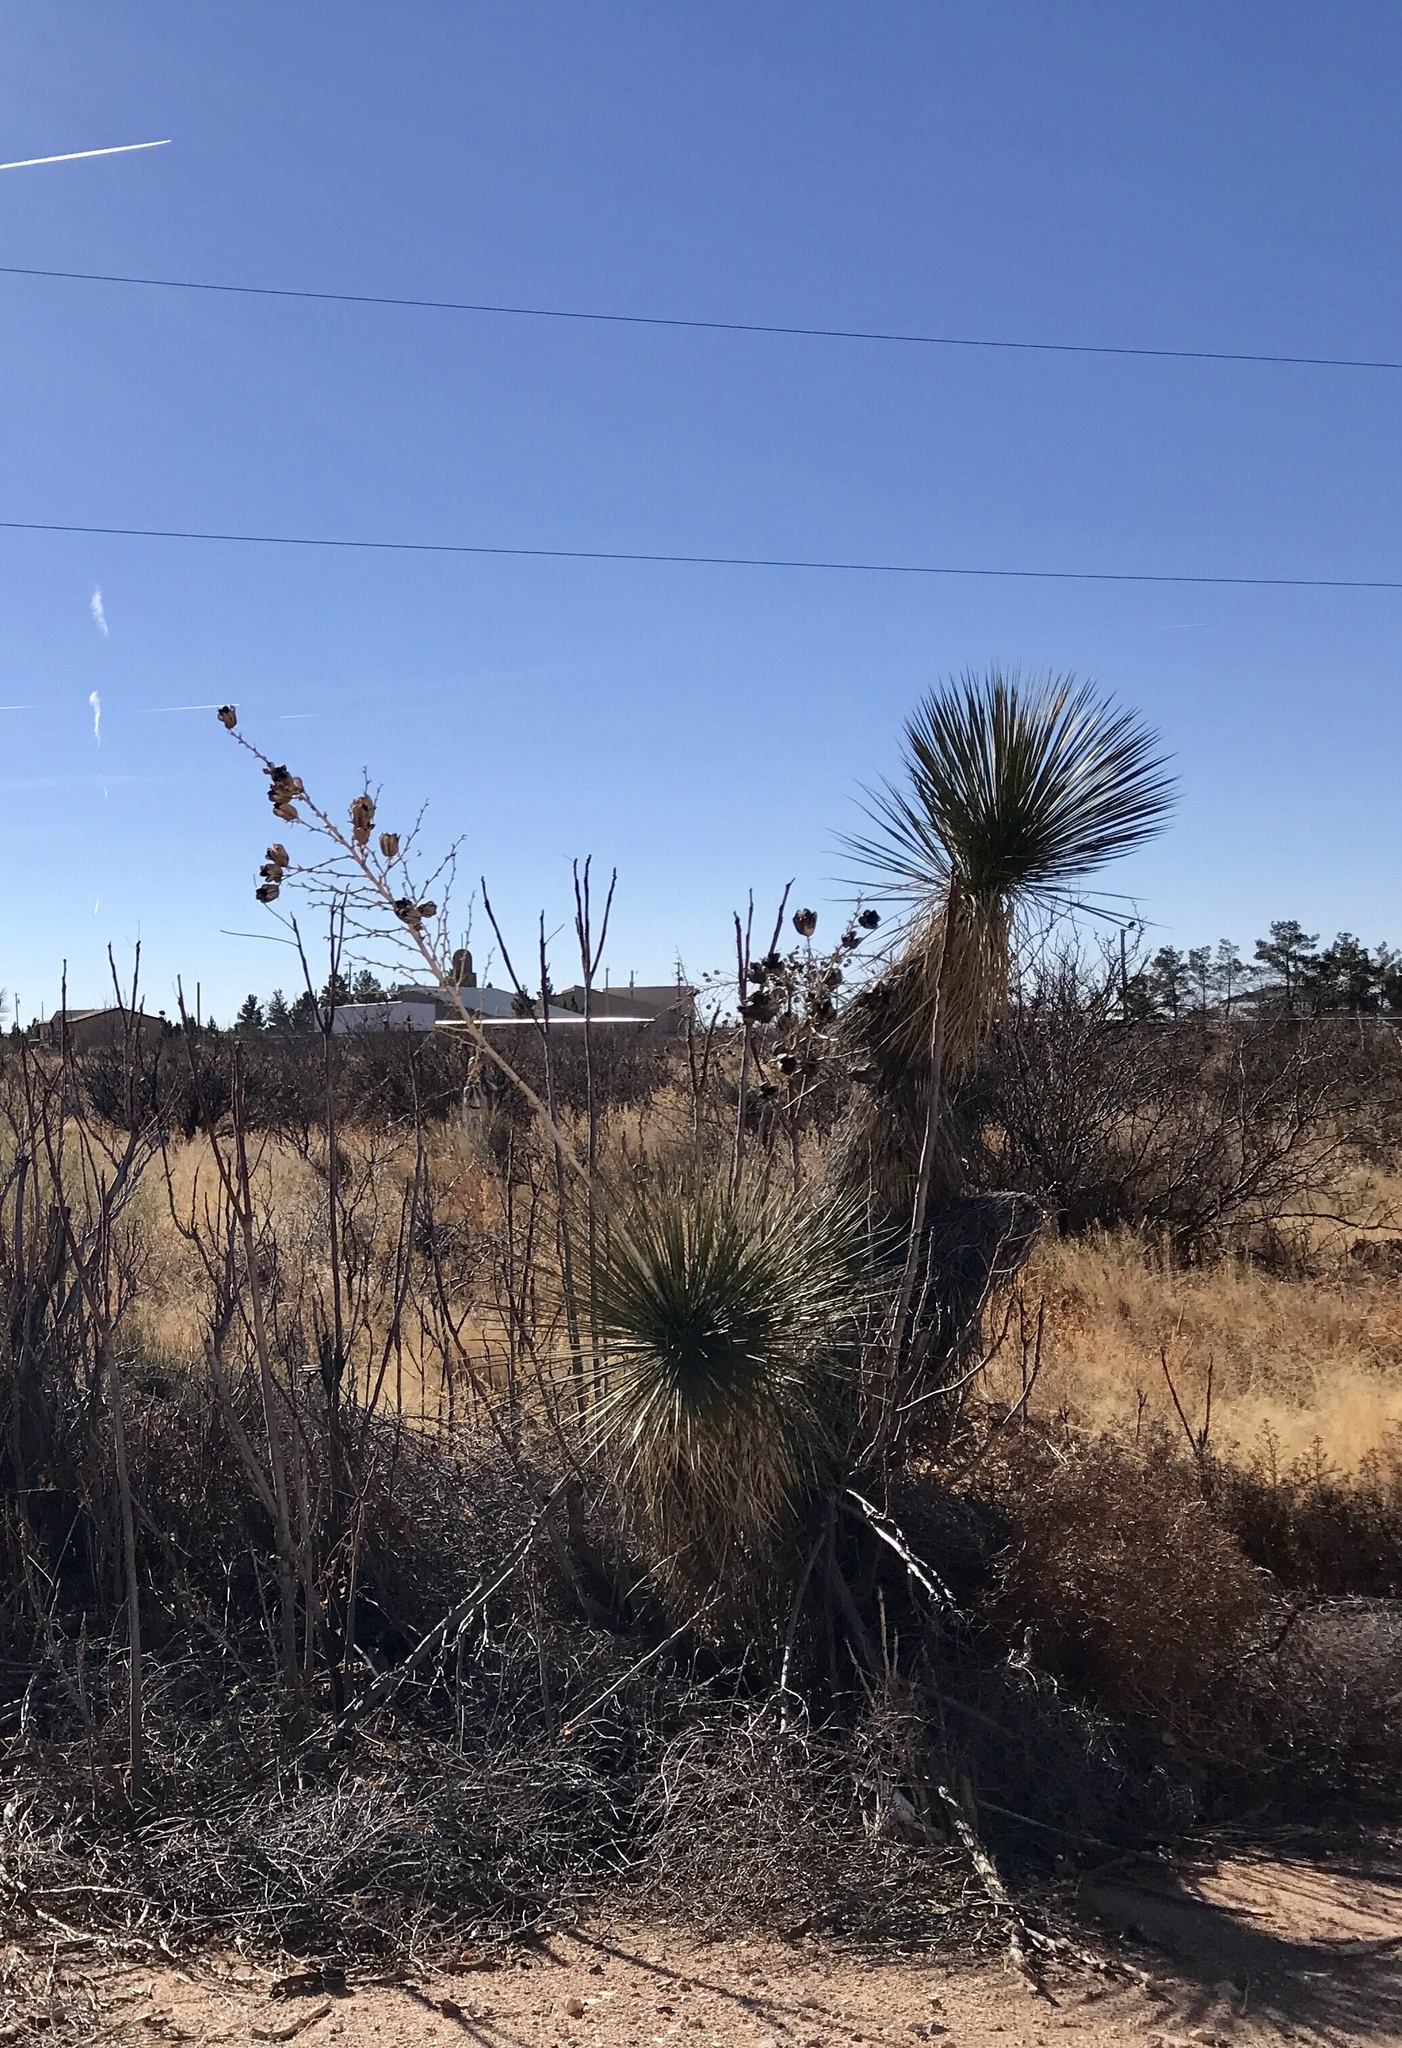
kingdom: Plantae
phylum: Tracheophyta
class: Liliopsida
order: Asparagales
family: Asparagaceae
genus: Yucca
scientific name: Yucca elata
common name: Palmella
